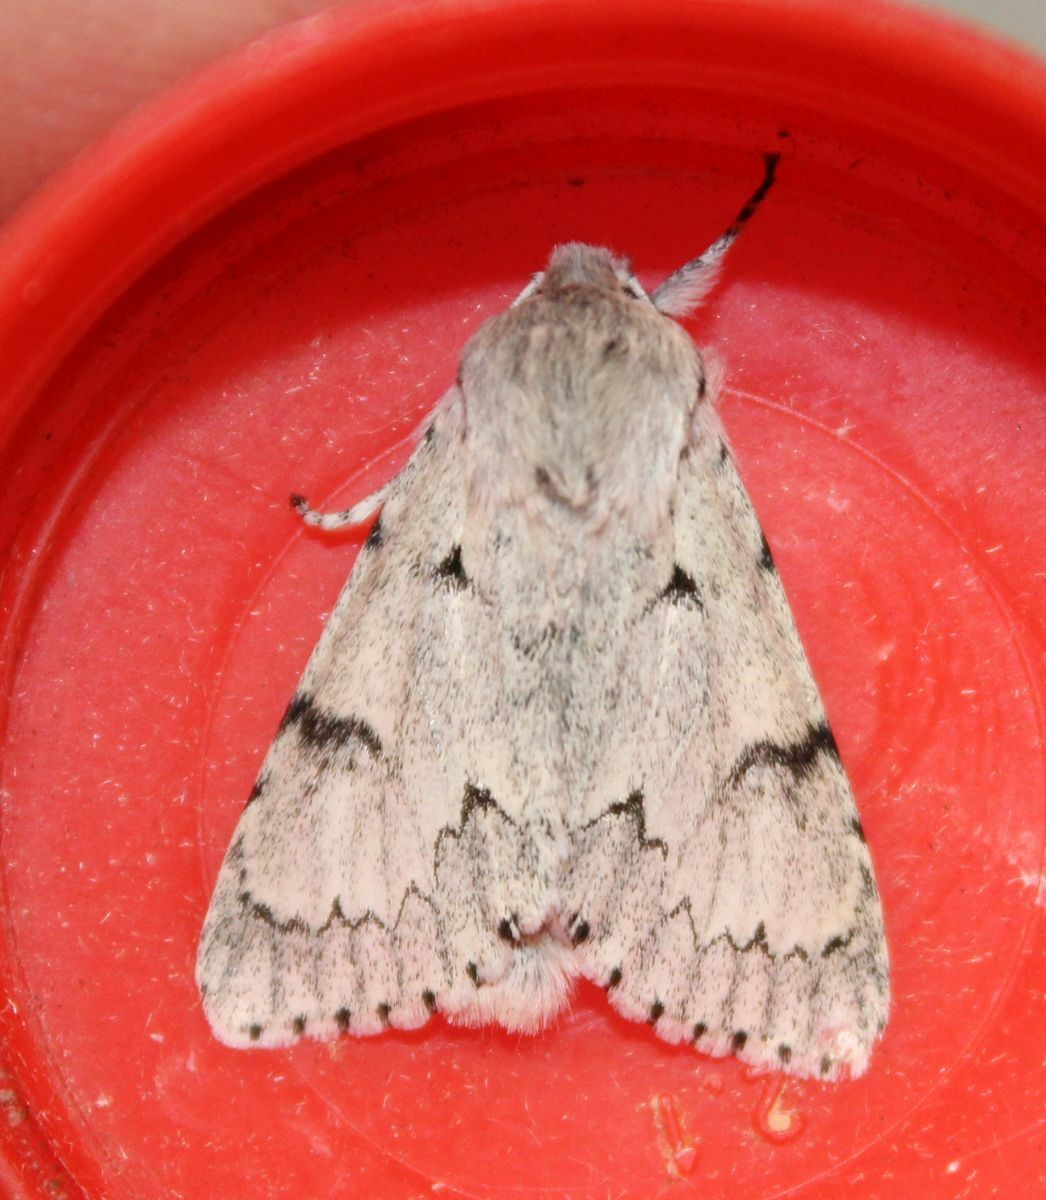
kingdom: Animalia
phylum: Arthropoda
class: Insecta
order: Lepidoptera
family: Noctuidae
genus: Acronicta
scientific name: Acronicta leporina
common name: Miller
